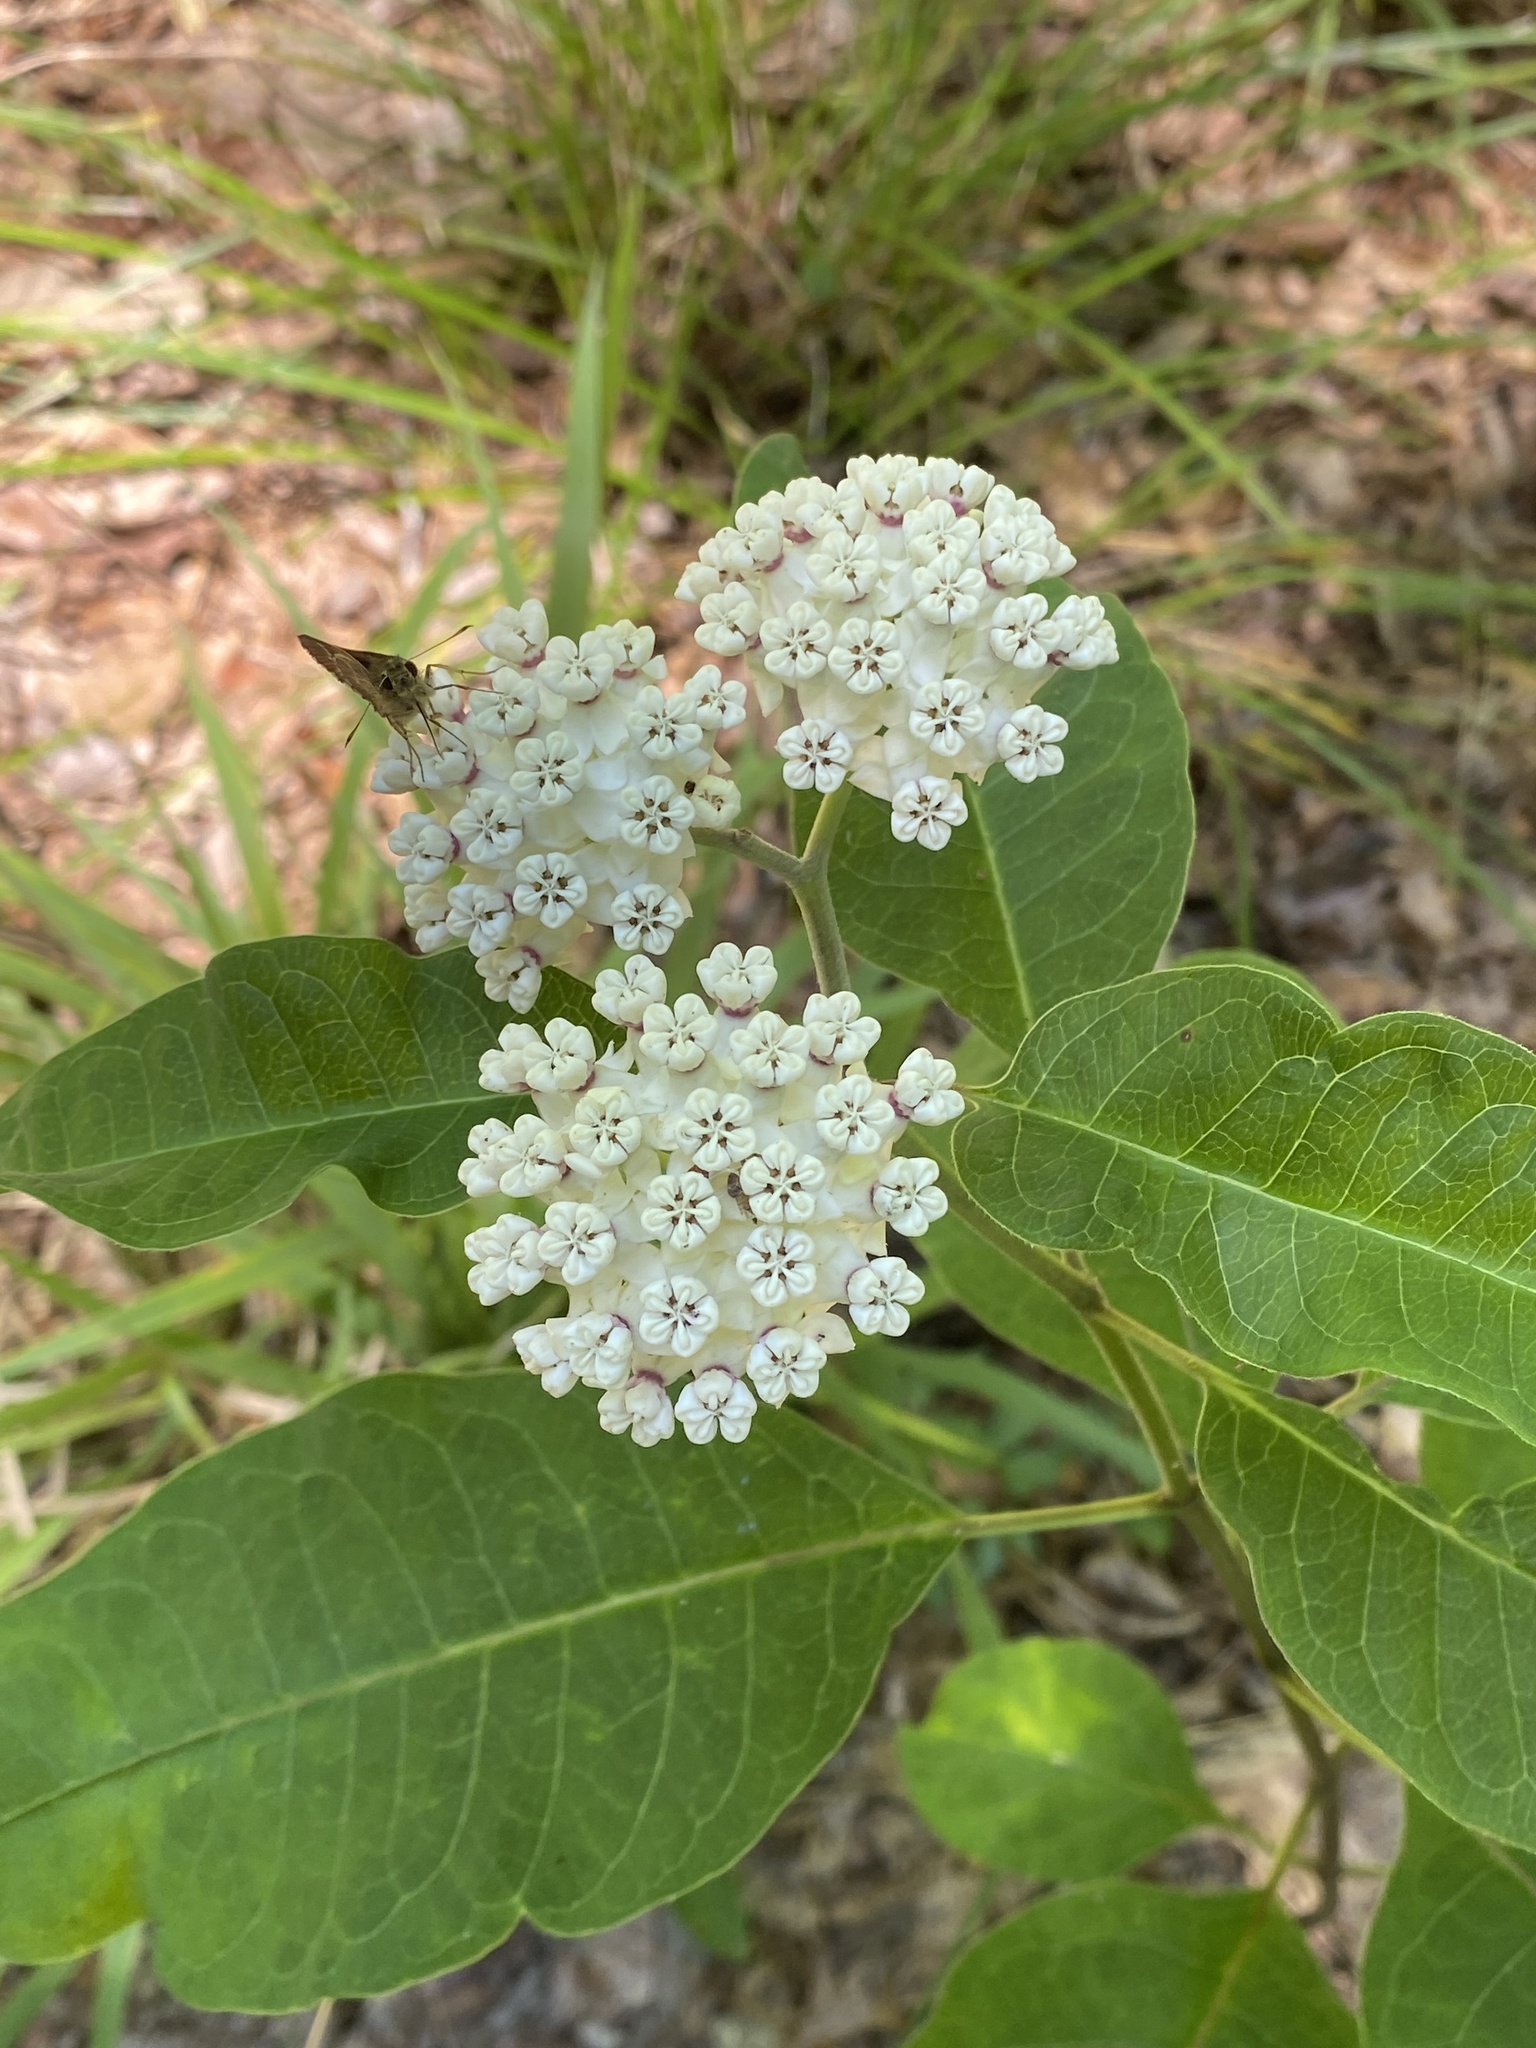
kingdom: Plantae
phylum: Tracheophyta
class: Magnoliopsida
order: Gentianales
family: Apocynaceae
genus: Asclepias
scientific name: Asclepias variegata
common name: Variegated milkweed
